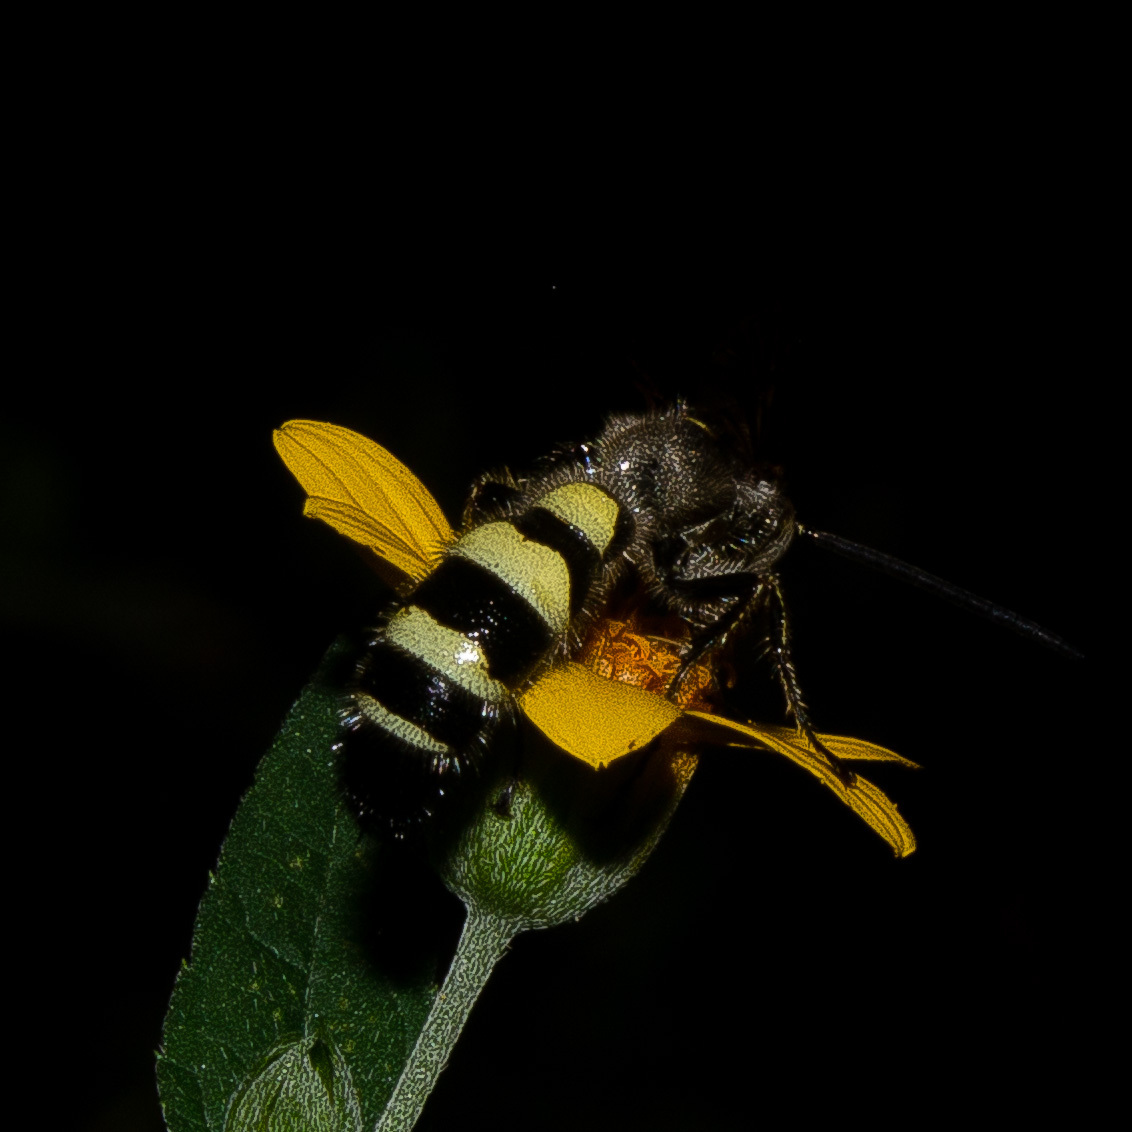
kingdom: Animalia
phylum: Arthropoda
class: Insecta
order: Hymenoptera
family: Scoliidae
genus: Dielis
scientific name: Dielis dorsata
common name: Scoliid wasp
